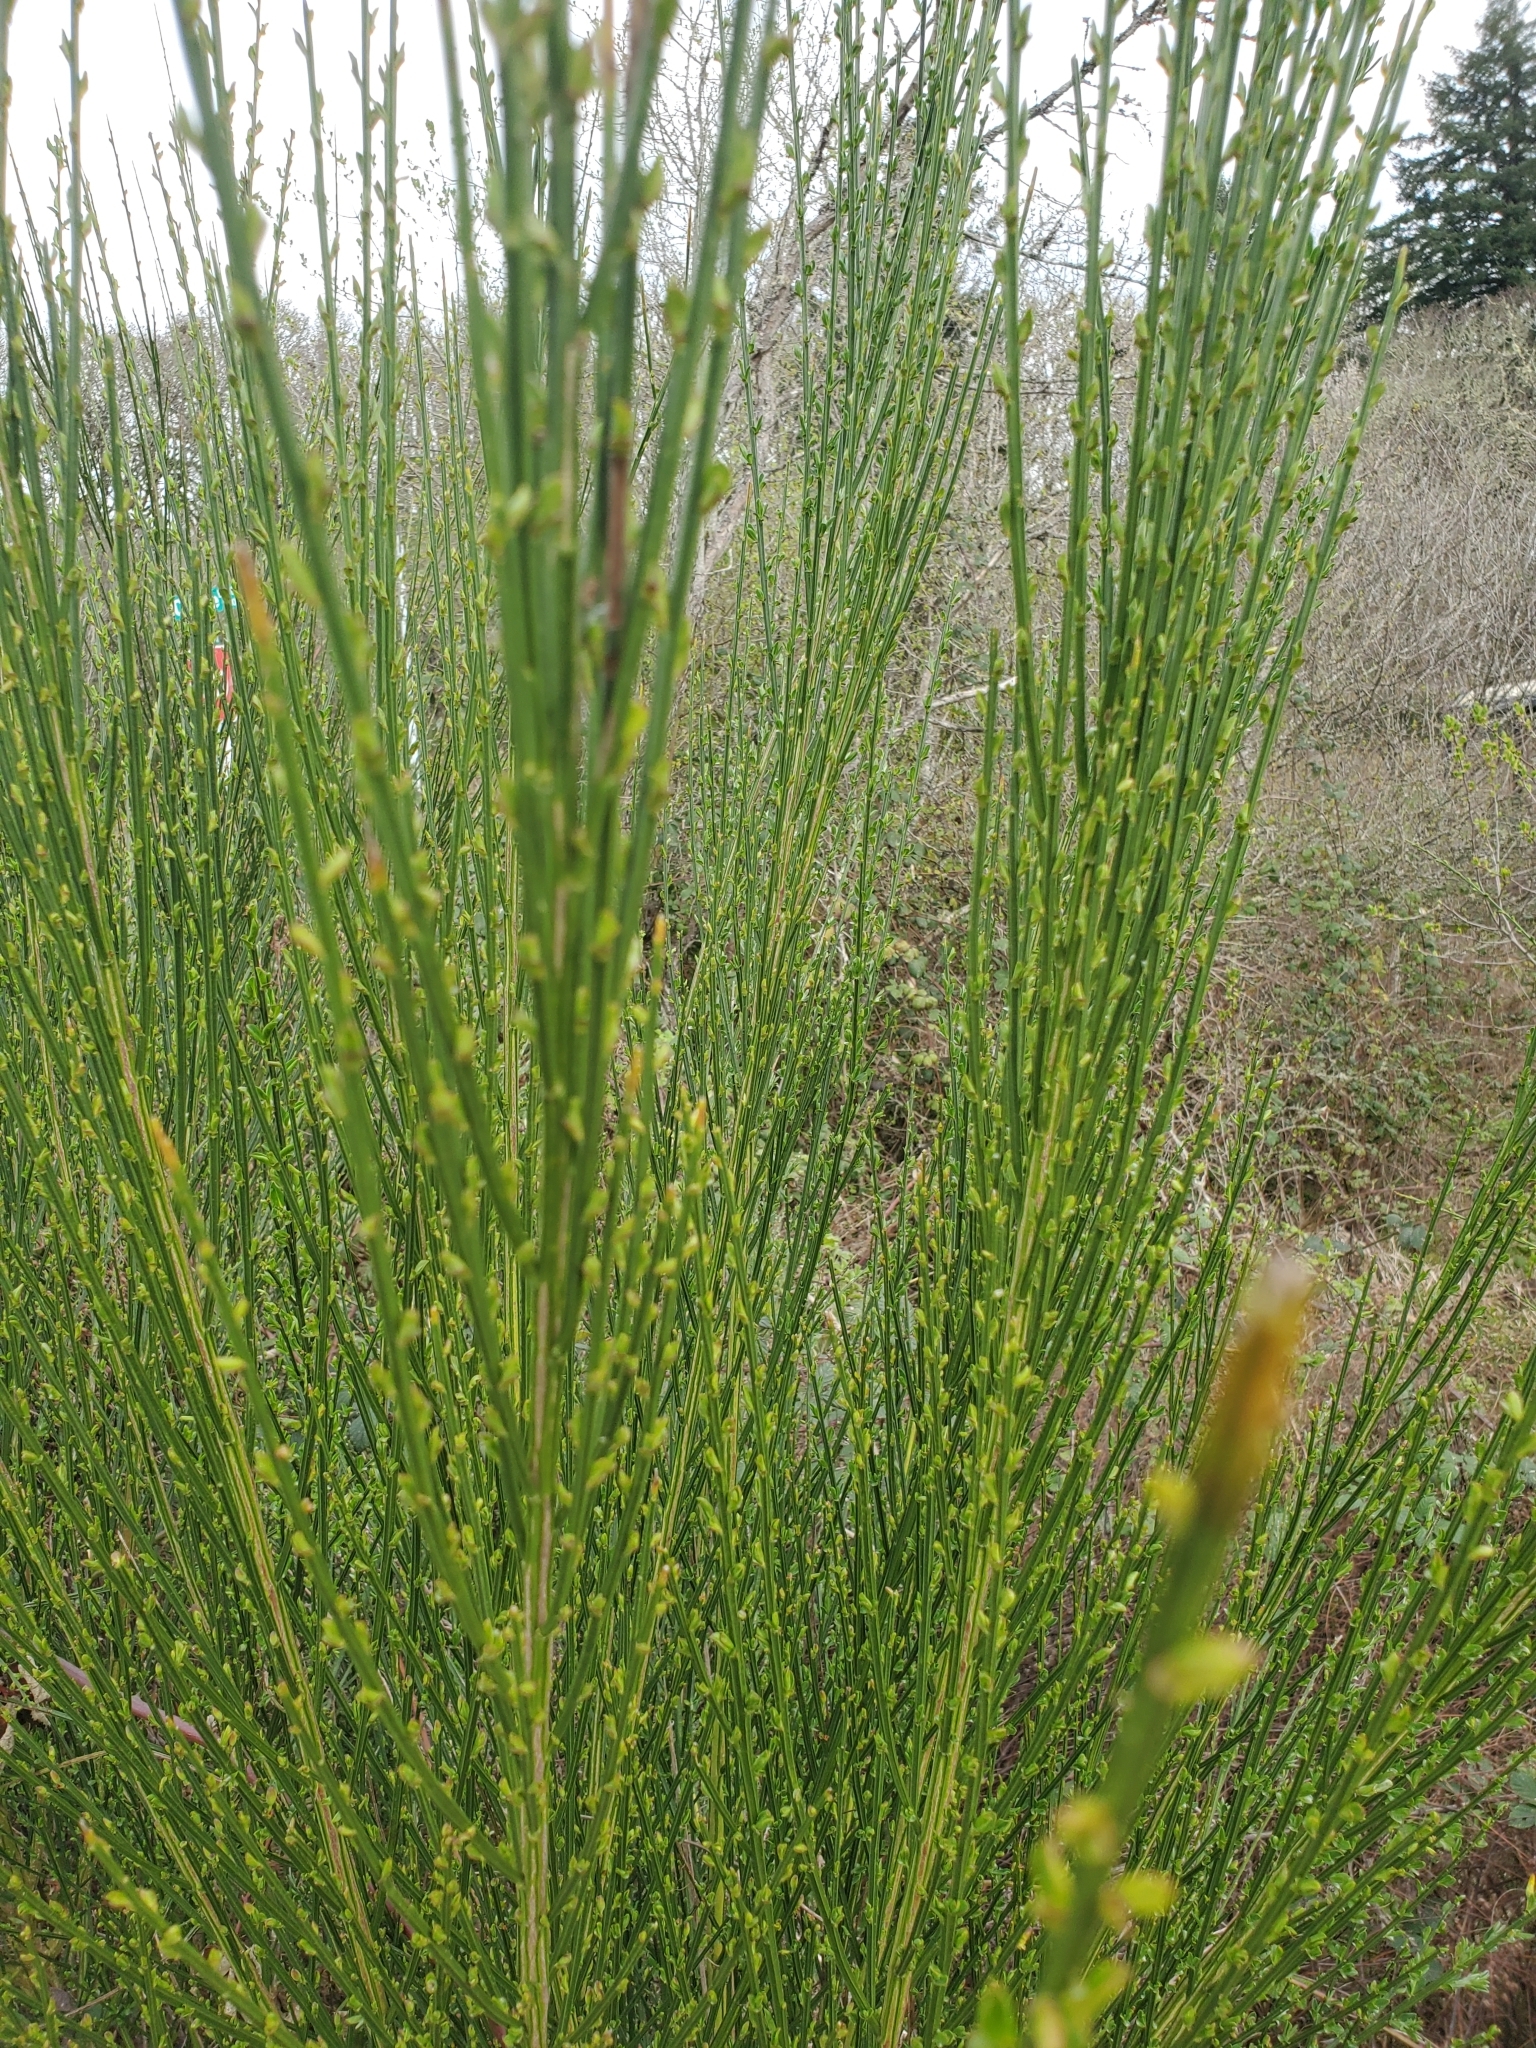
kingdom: Plantae
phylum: Tracheophyta
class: Magnoliopsida
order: Fabales
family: Fabaceae
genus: Cytisus
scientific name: Cytisus scoparius
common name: Scotch broom
